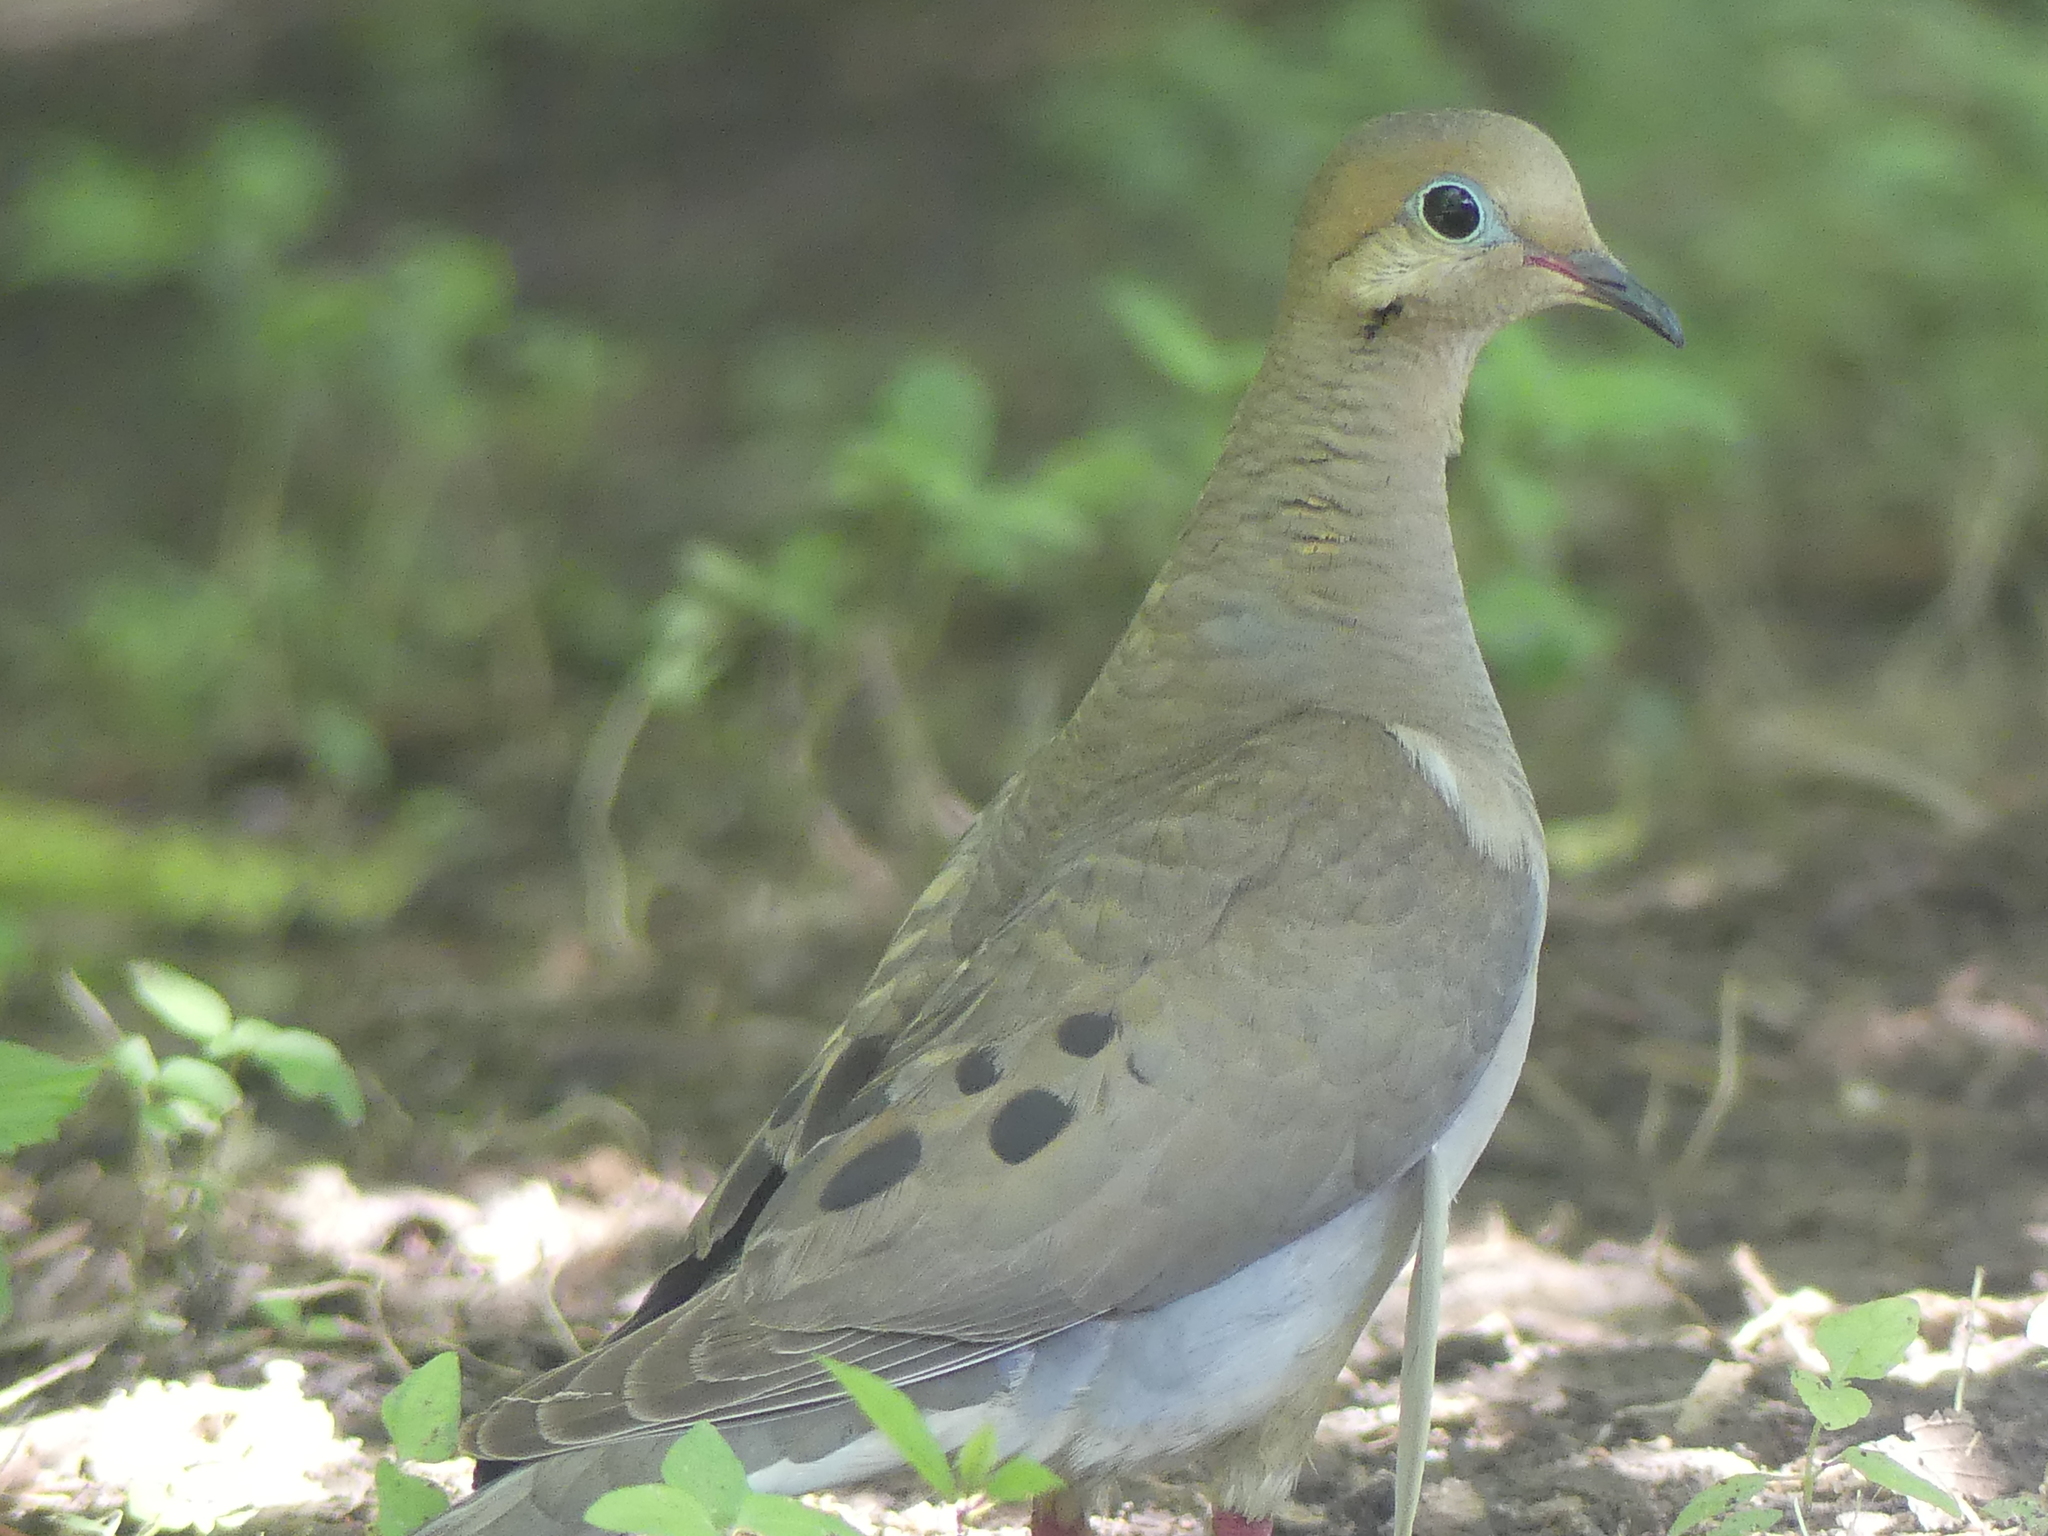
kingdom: Animalia
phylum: Chordata
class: Aves
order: Columbiformes
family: Columbidae
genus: Zenaida
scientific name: Zenaida macroura
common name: Mourning dove
